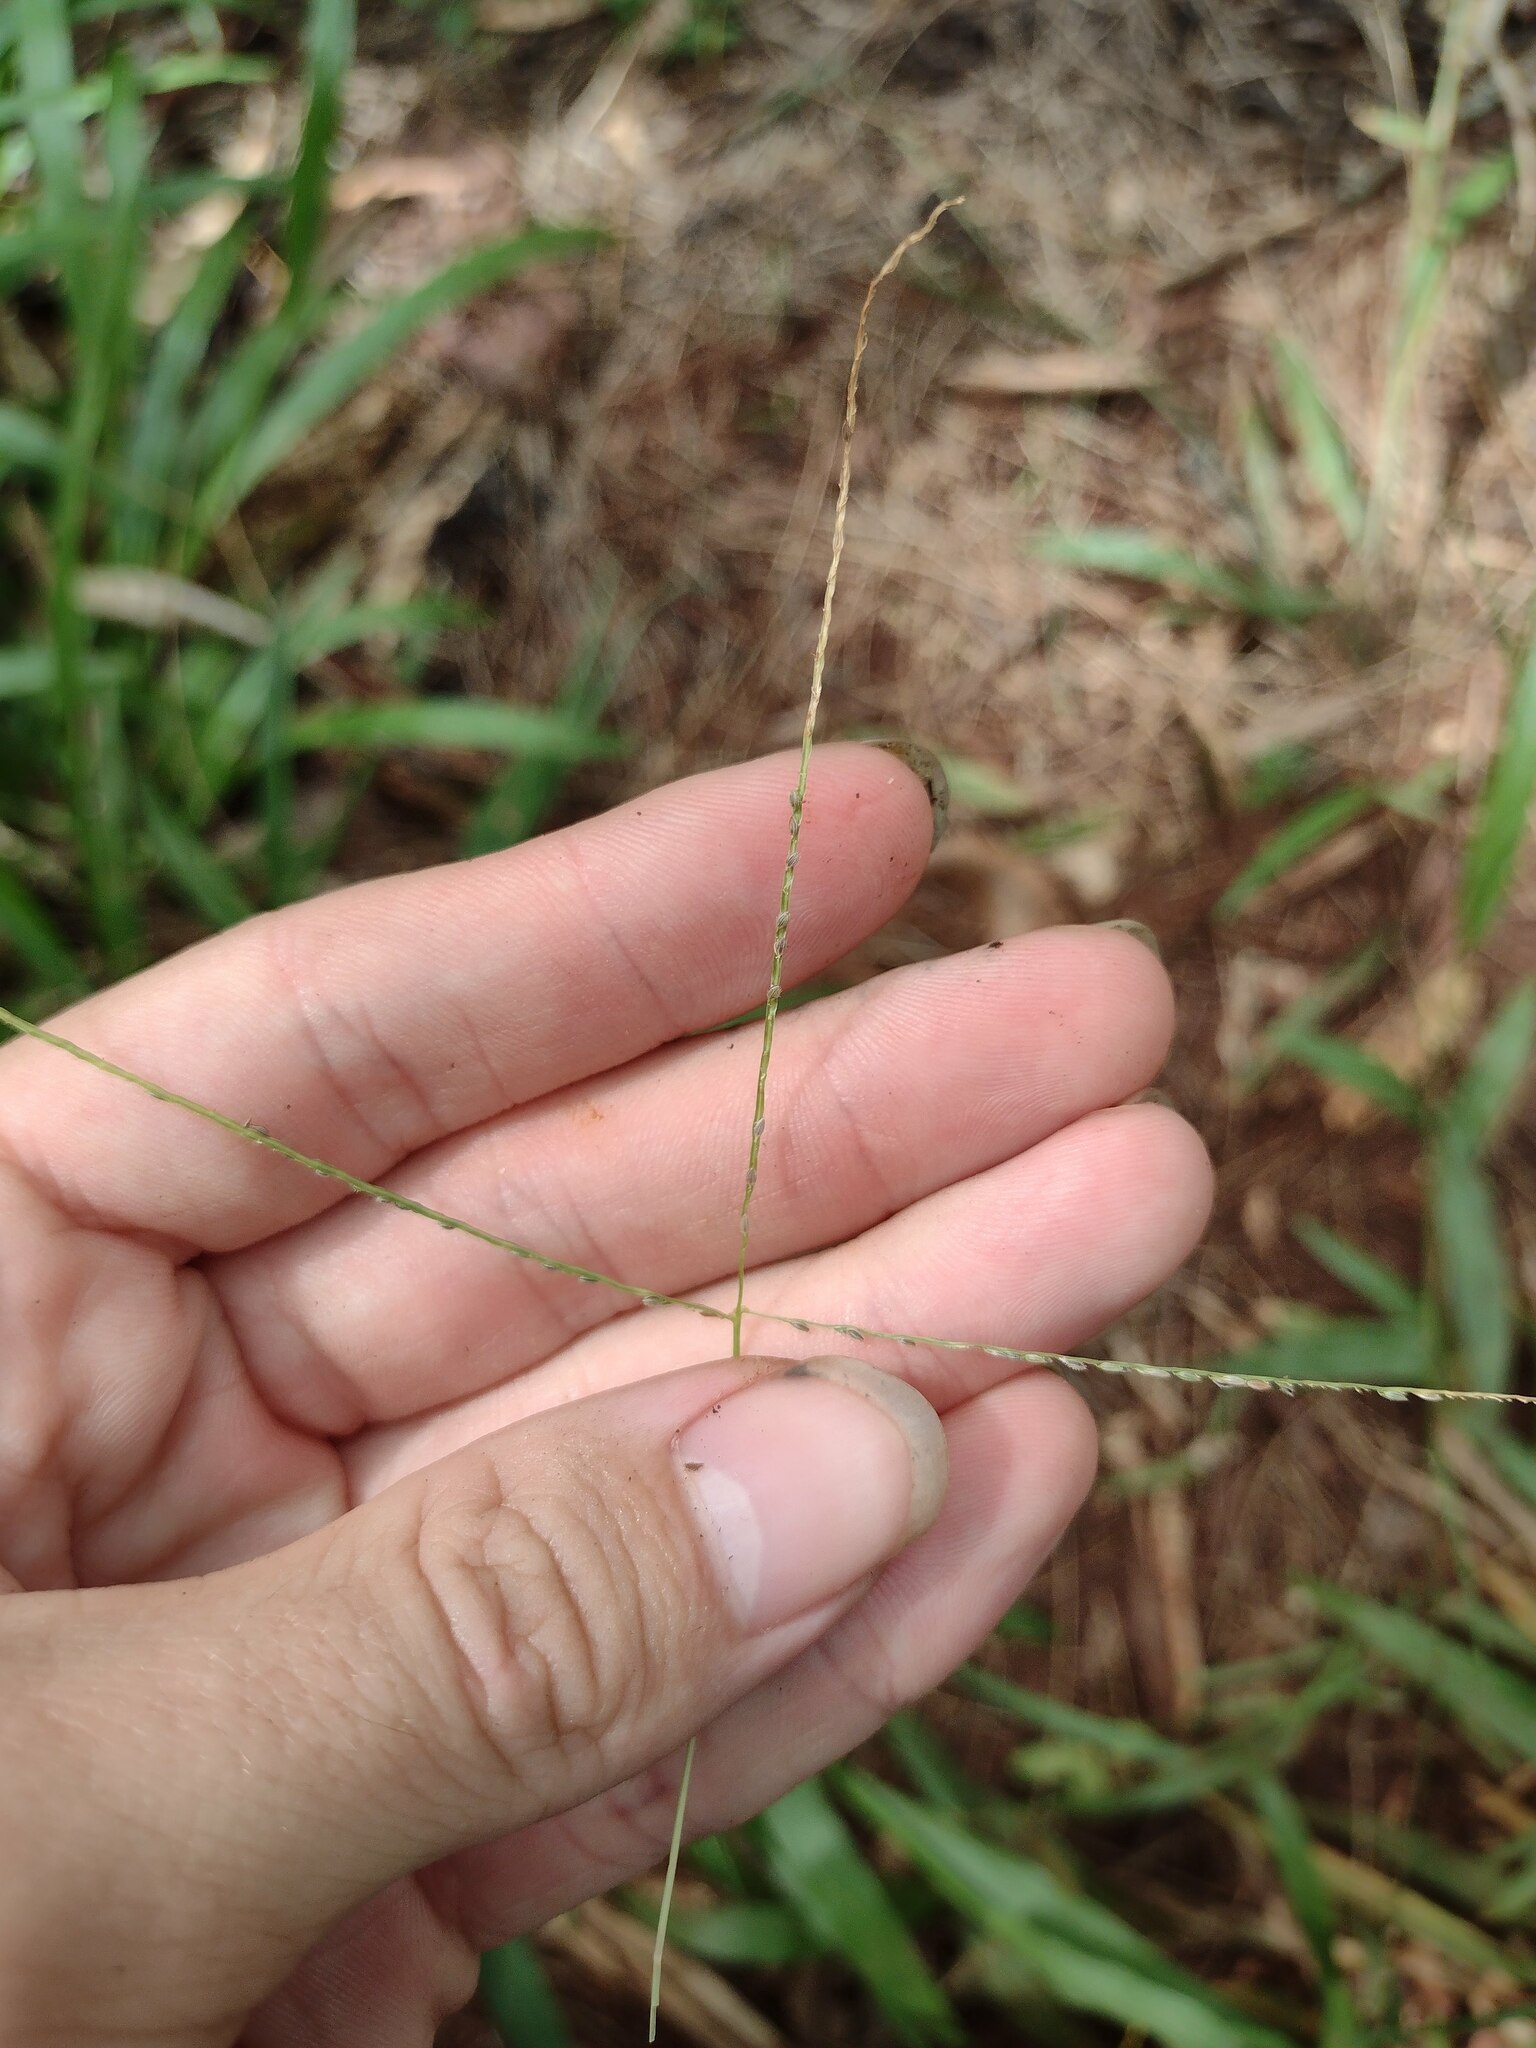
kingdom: Plantae
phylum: Tracheophyta
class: Liliopsida
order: Poales
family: Poaceae
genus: Digitaria
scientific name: Digitaria violascens
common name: Violet crabgrass
